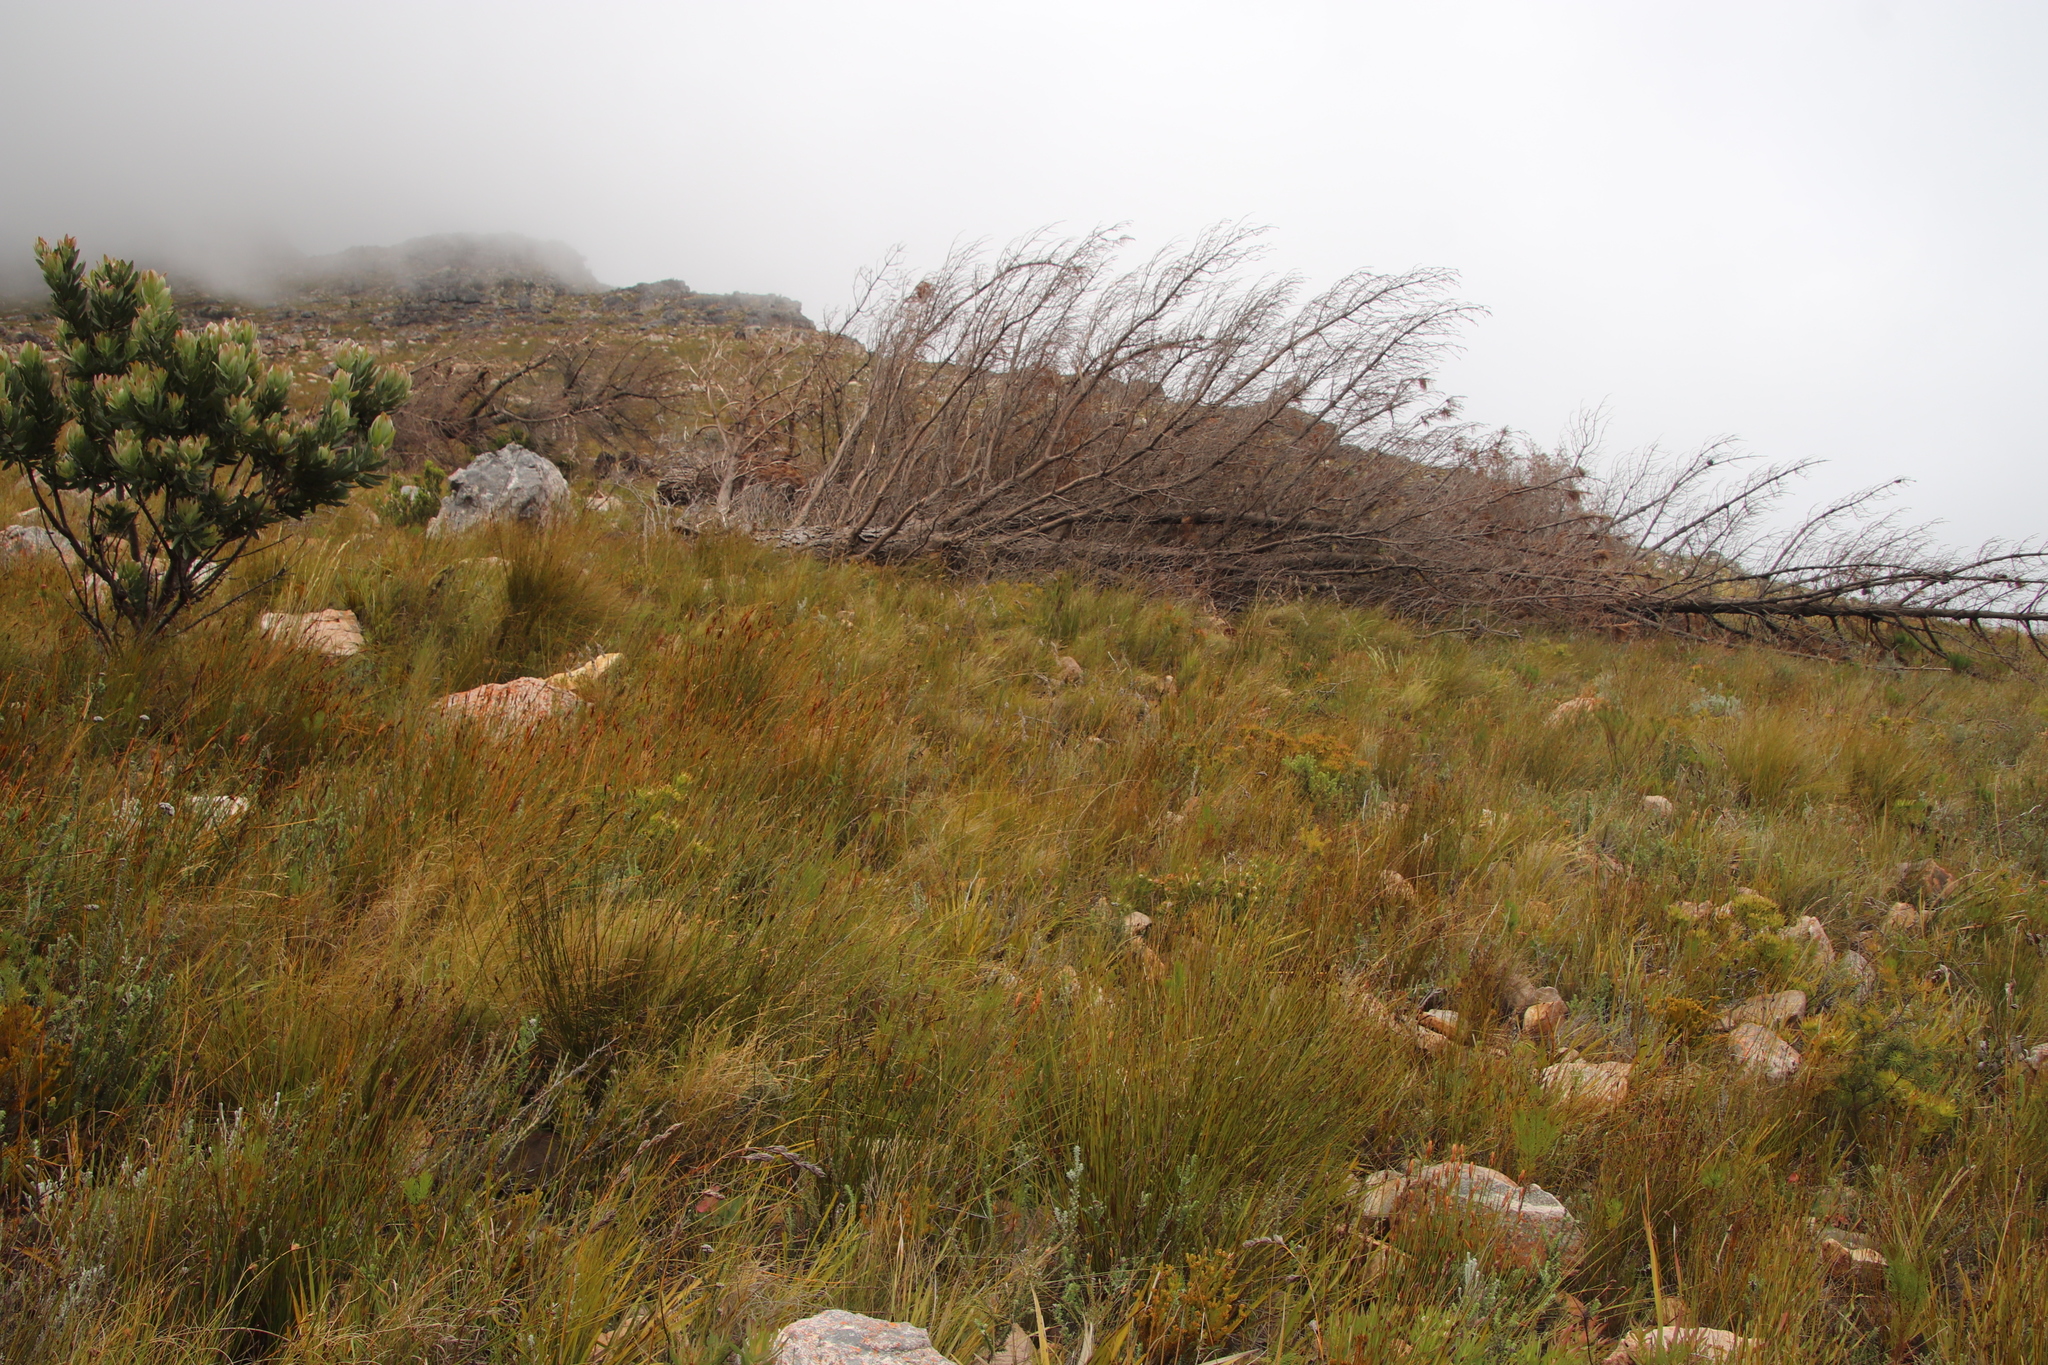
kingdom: Plantae
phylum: Tracheophyta
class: Pinopsida
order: Pinales
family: Pinaceae
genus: Pinus
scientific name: Pinus radiata
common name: Monterey pine
